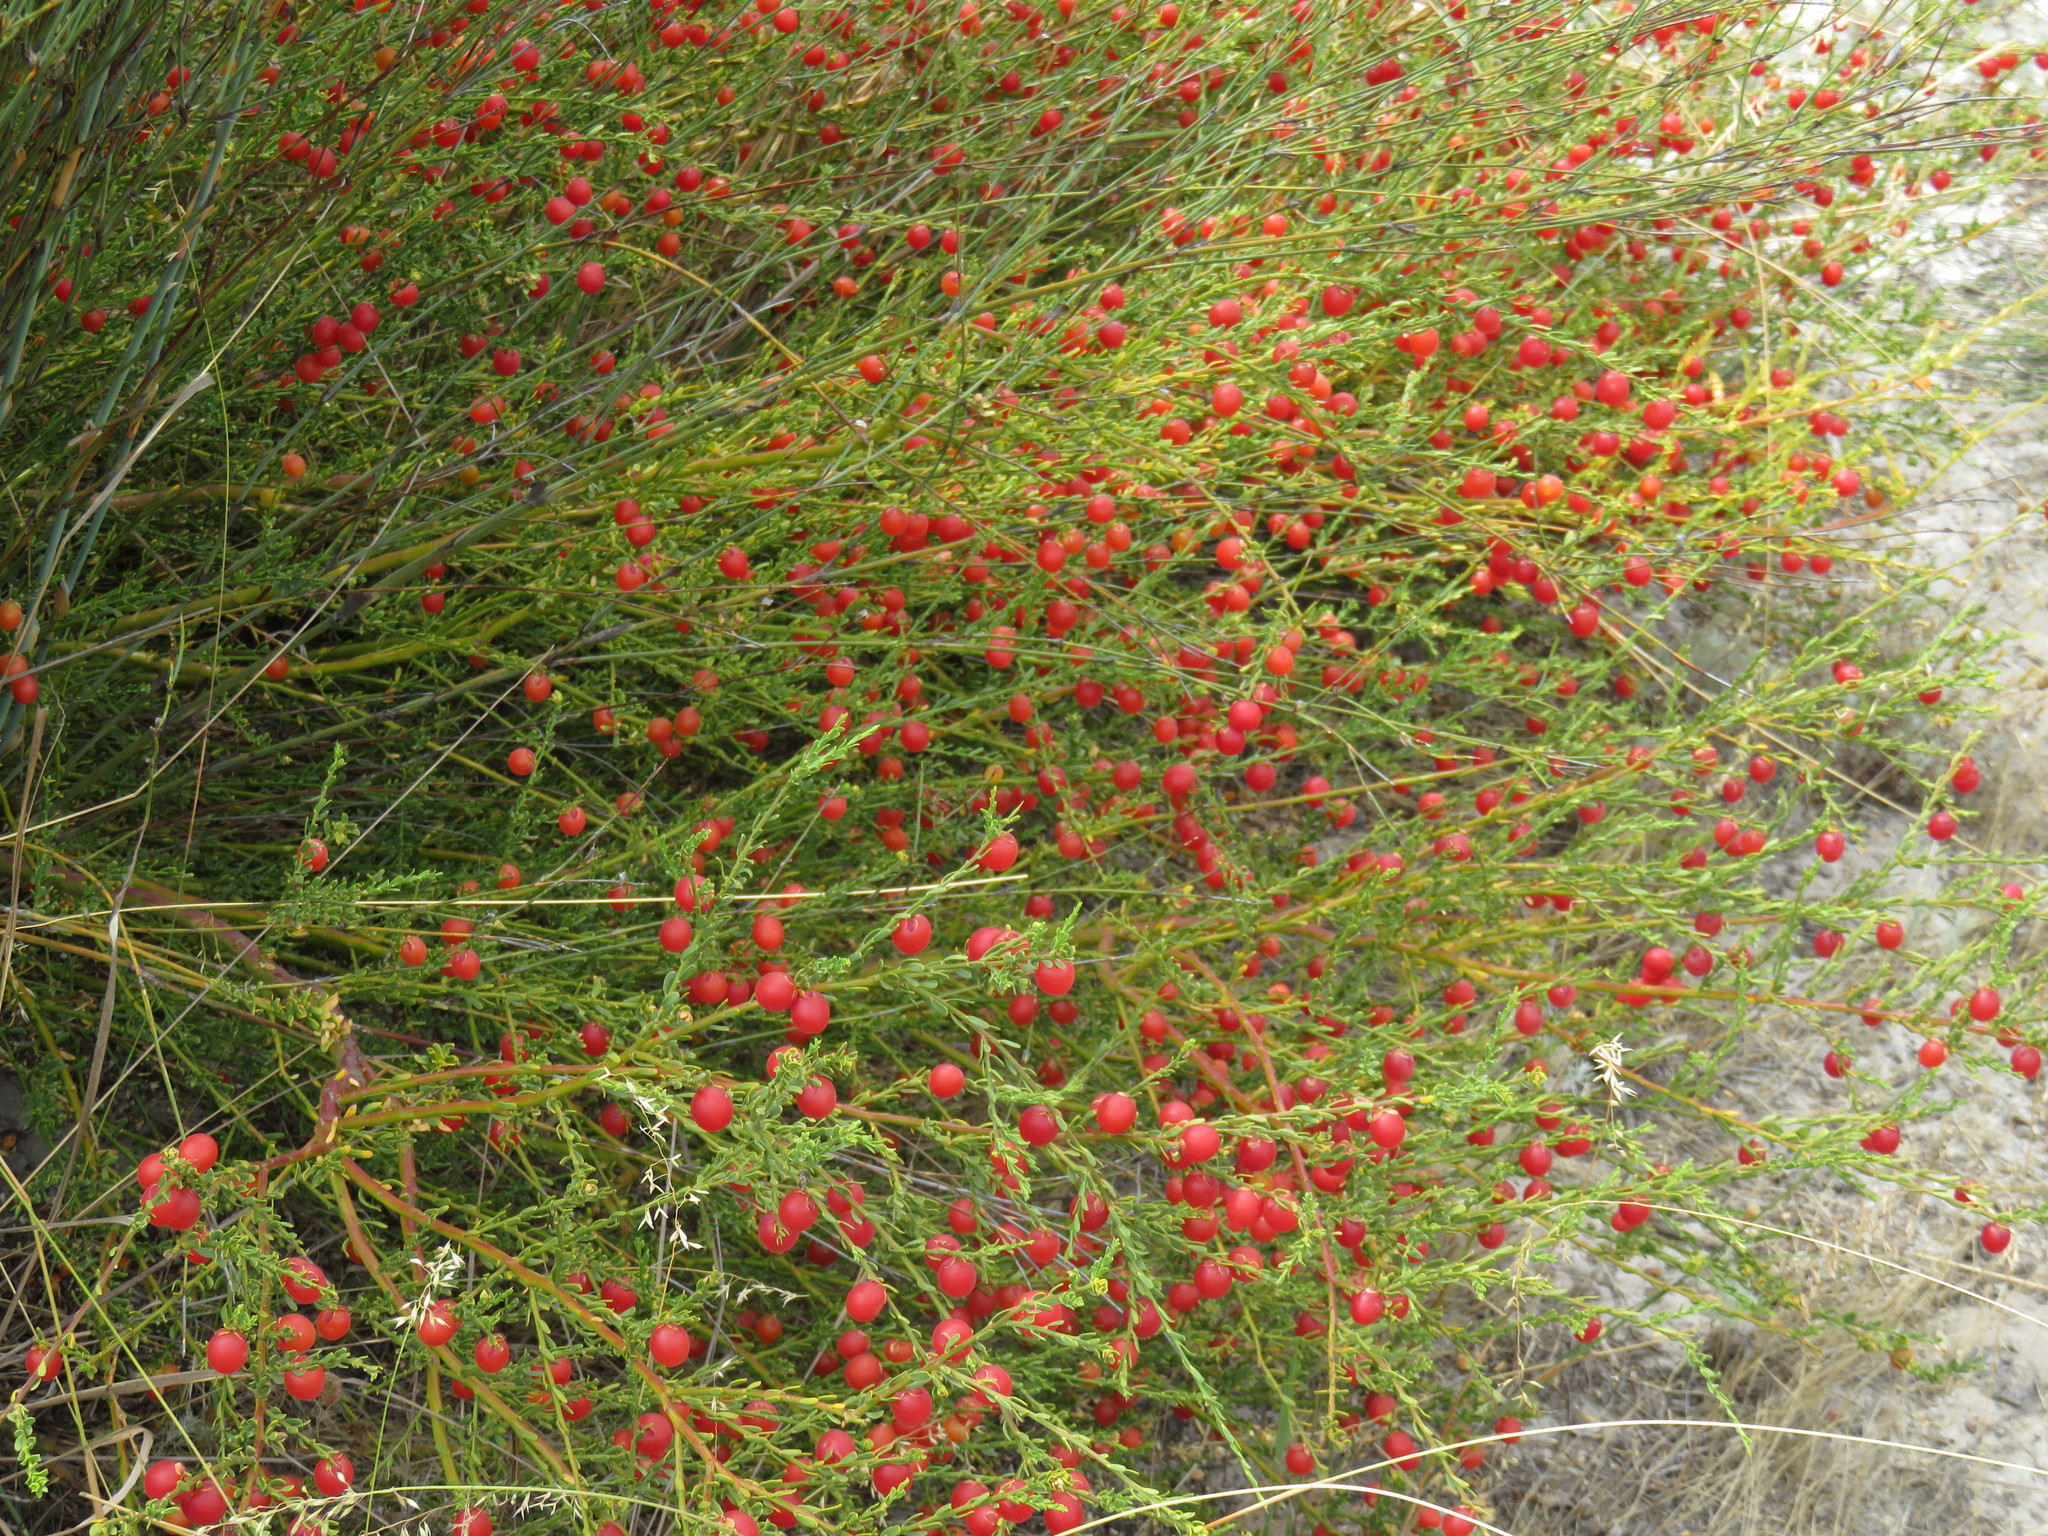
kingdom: Plantae
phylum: Tracheophyta
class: Magnoliopsida
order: Fabales
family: Polygalaceae
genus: Muraltia
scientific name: Muraltia spinosa
